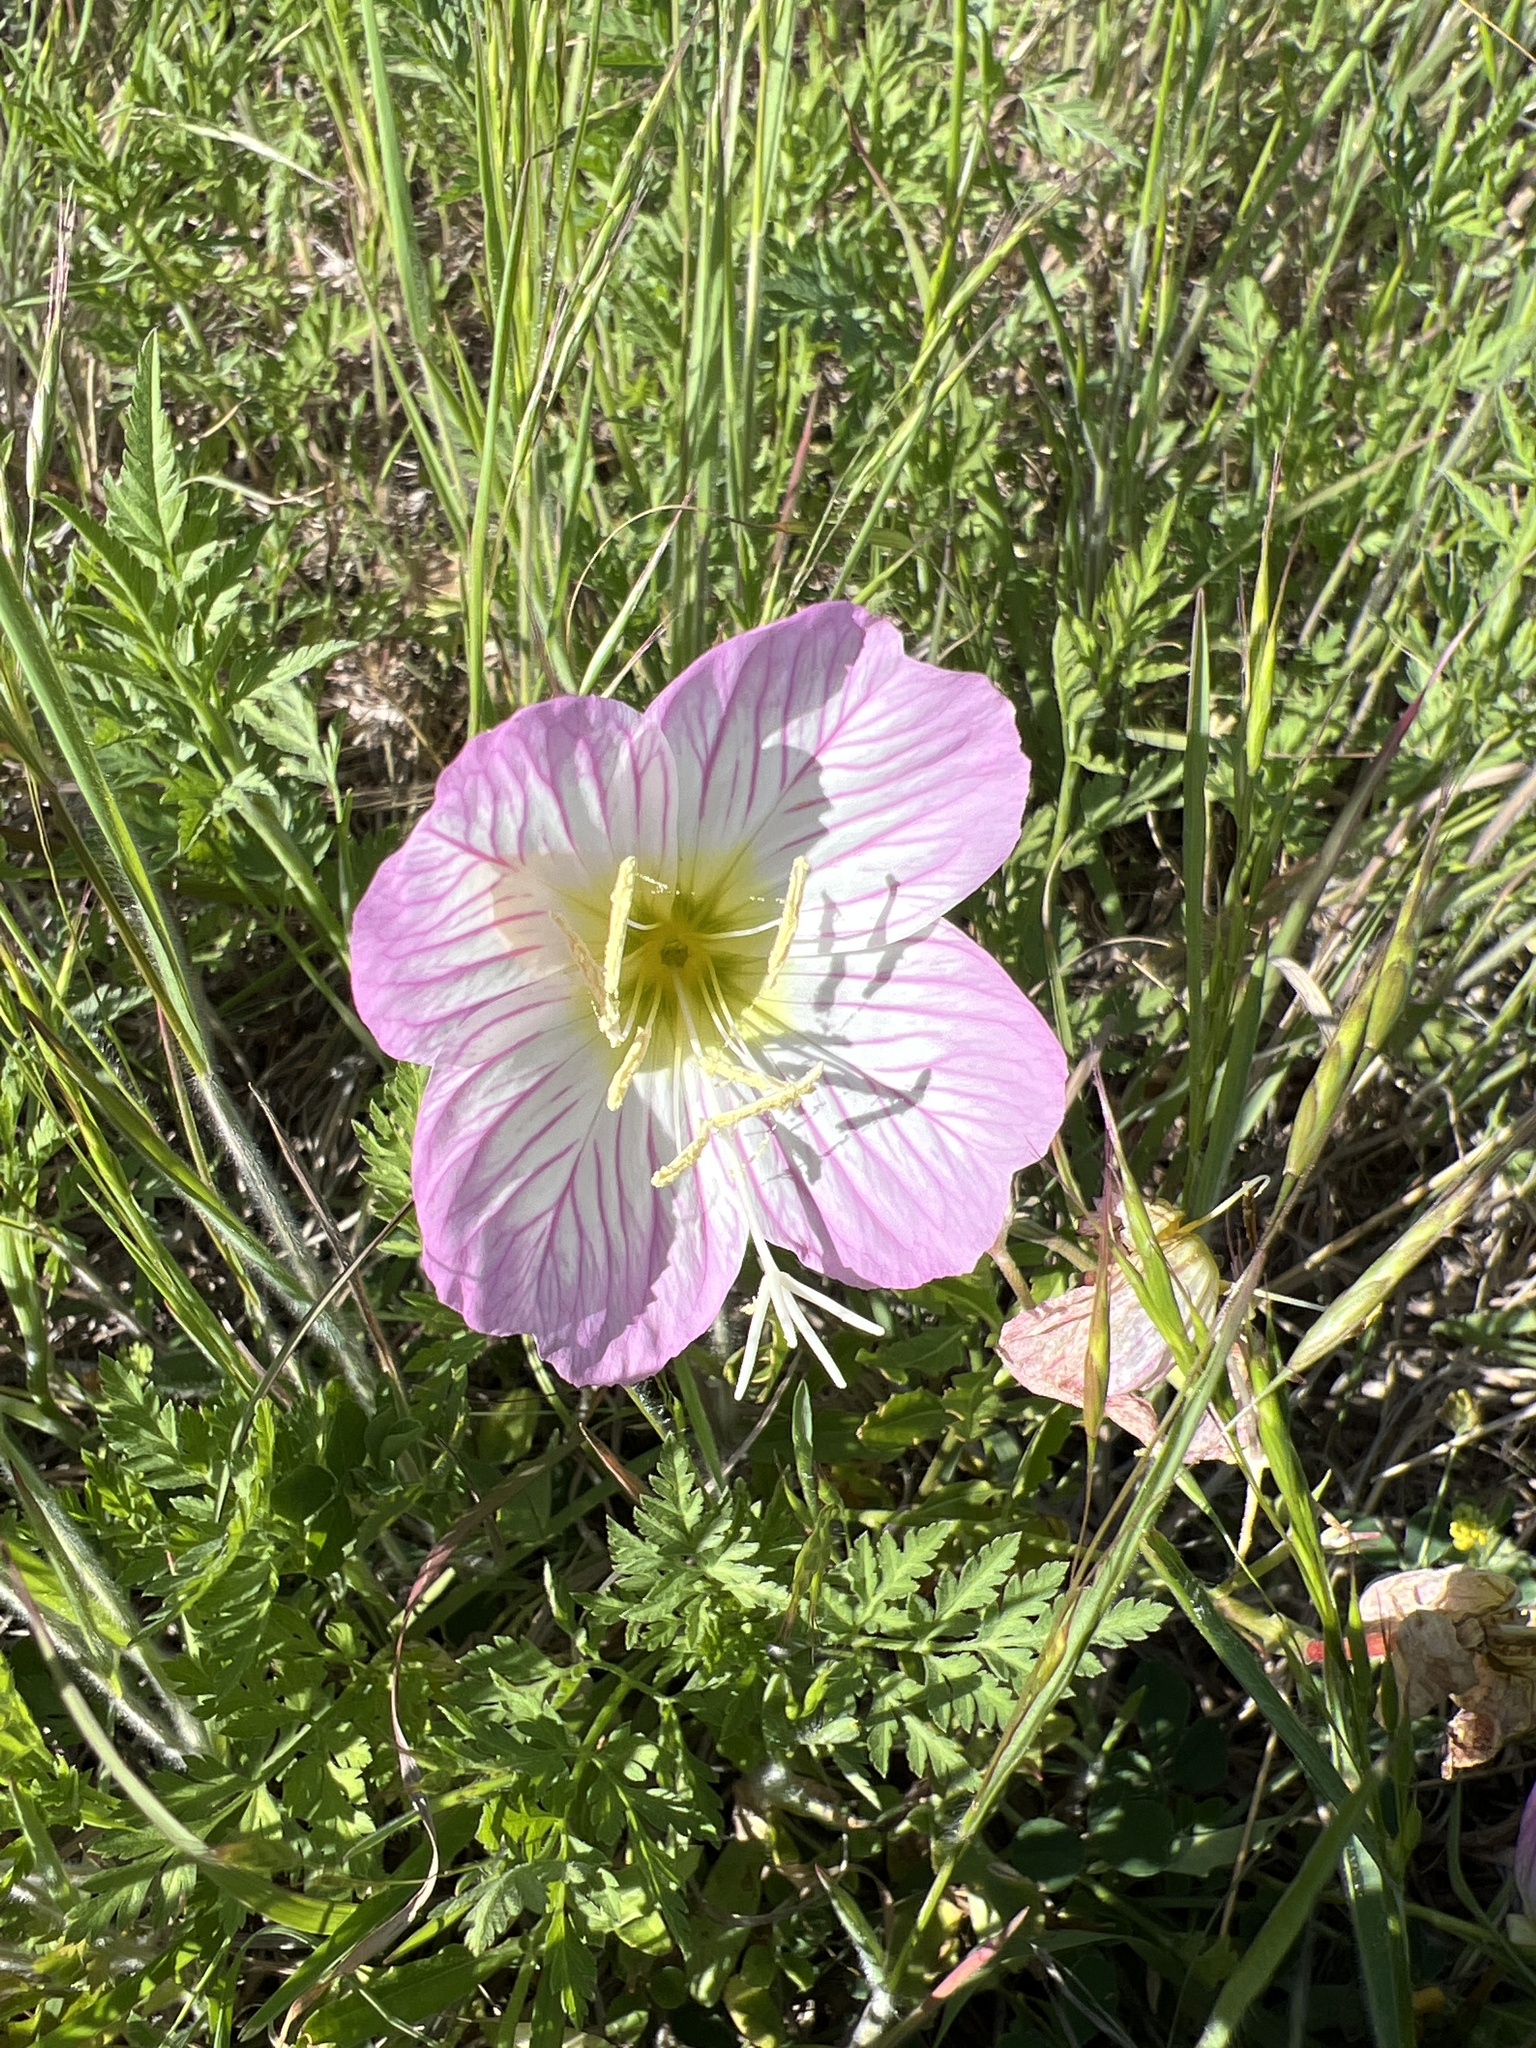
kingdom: Plantae
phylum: Tracheophyta
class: Magnoliopsida
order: Myrtales
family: Onagraceae
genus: Oenothera
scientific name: Oenothera speciosa
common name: White evening-primrose
